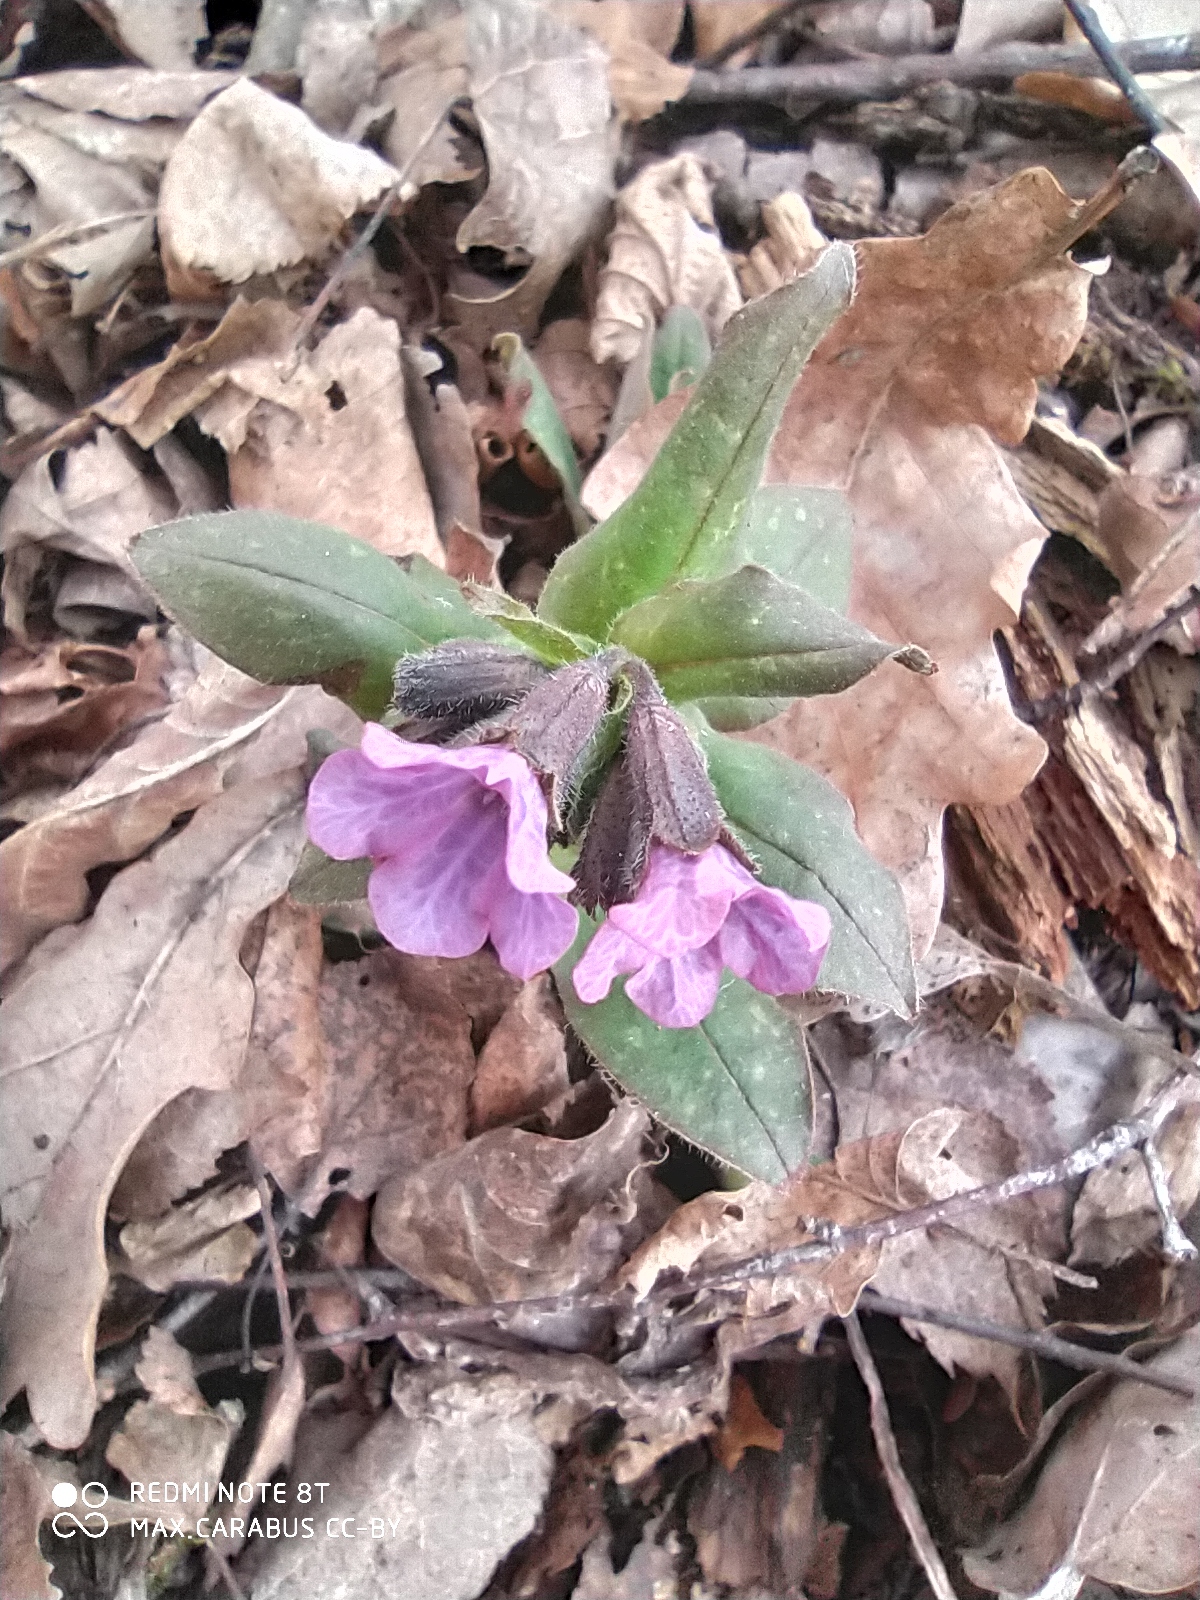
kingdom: Plantae
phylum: Tracheophyta
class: Magnoliopsida
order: Boraginales
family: Boraginaceae
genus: Pulmonaria
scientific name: Pulmonaria obscura
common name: Suffolk lungwort
